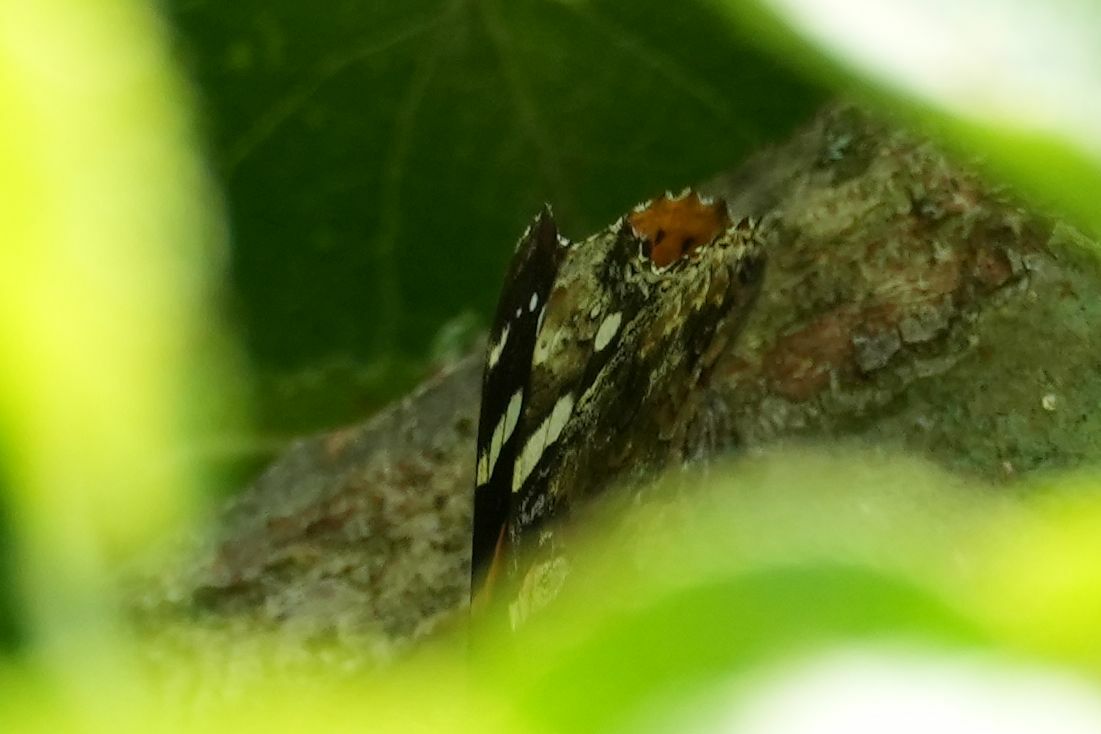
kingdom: Animalia
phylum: Arthropoda
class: Insecta
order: Lepidoptera
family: Nymphalidae
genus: Vanessa
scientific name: Vanessa atalanta
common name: Red admiral
